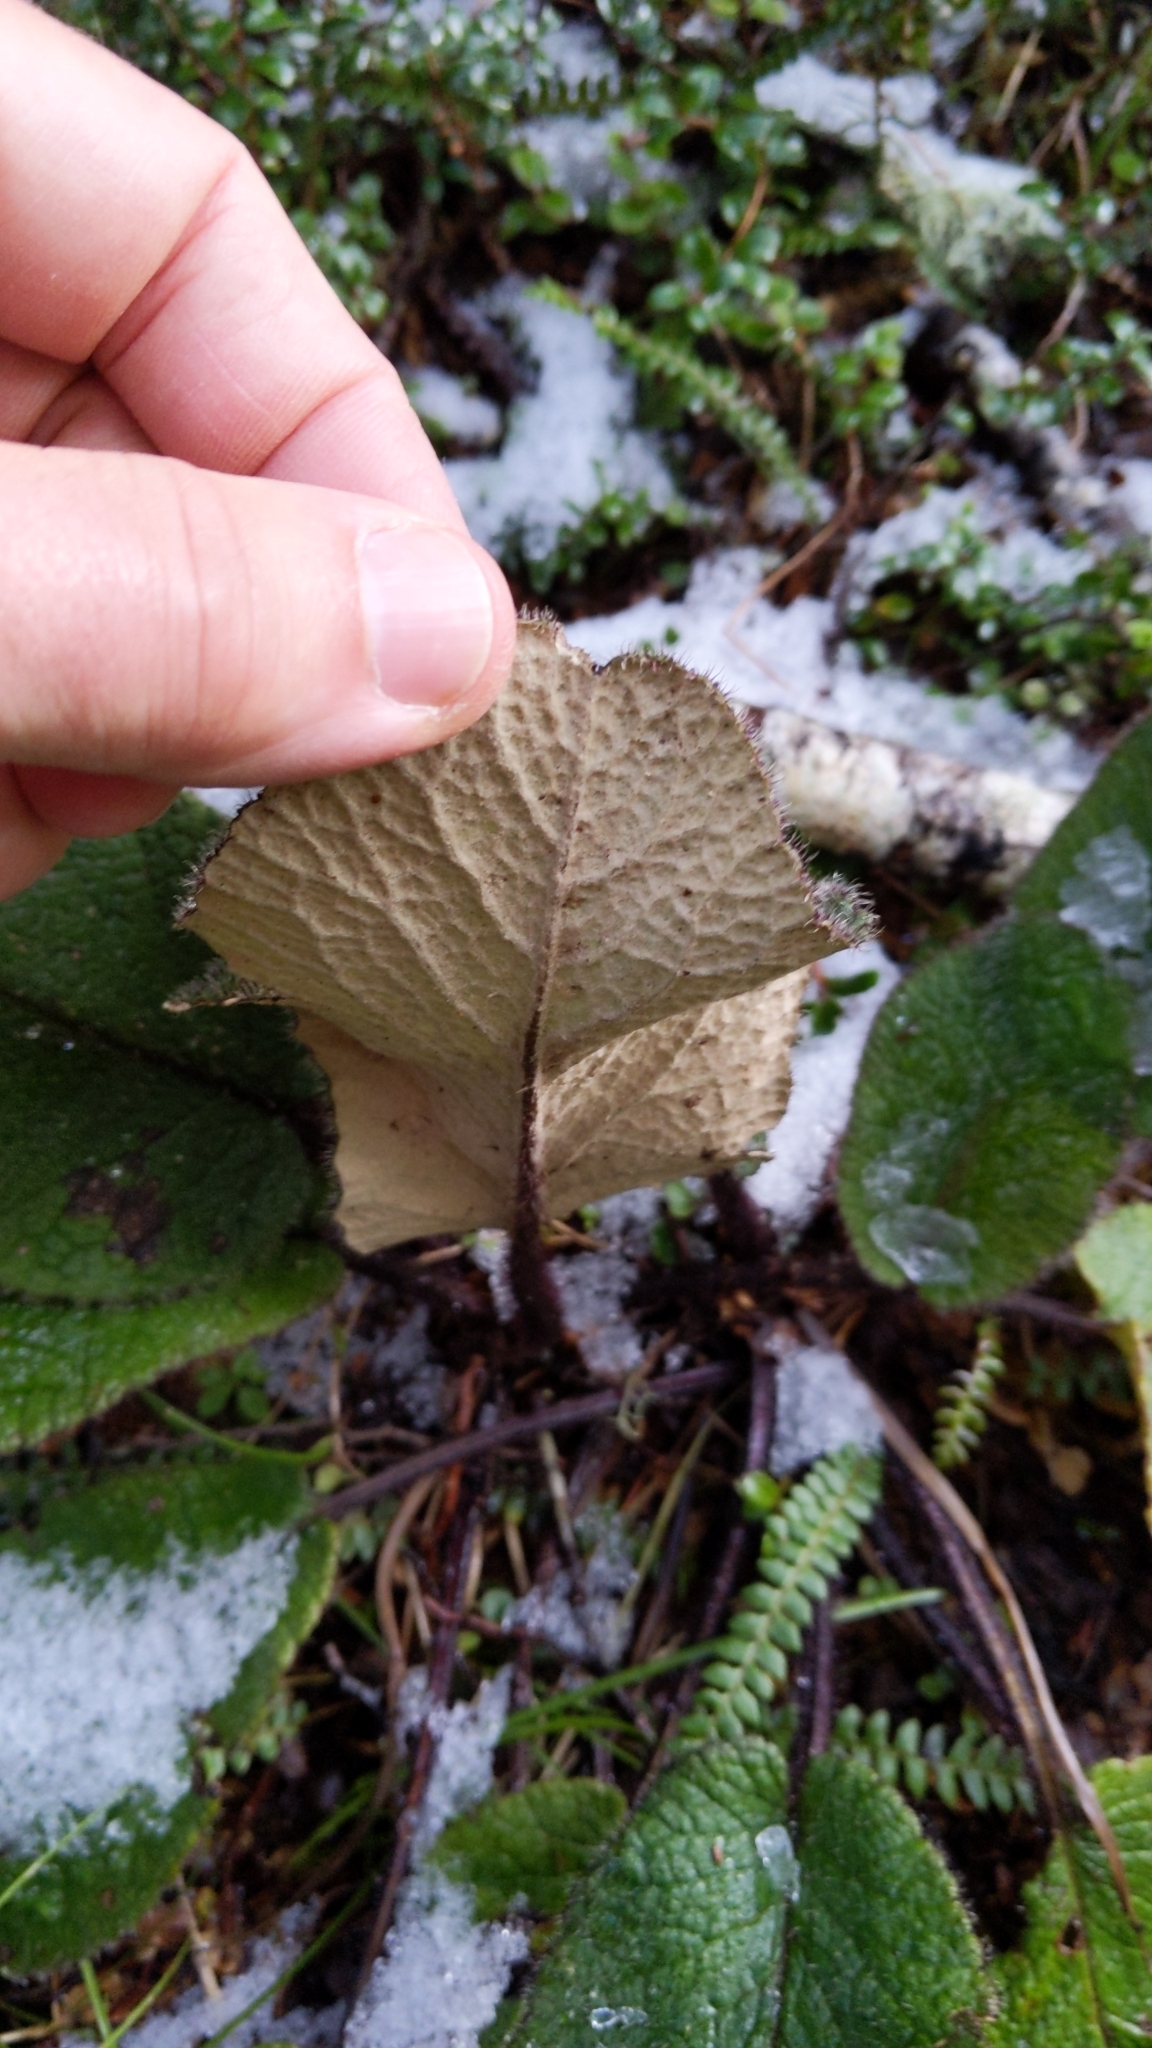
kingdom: Plantae
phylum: Tracheophyta
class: Magnoliopsida
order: Asterales
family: Asteraceae
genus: Brachyglottis
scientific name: Brachyglottis lagopus
